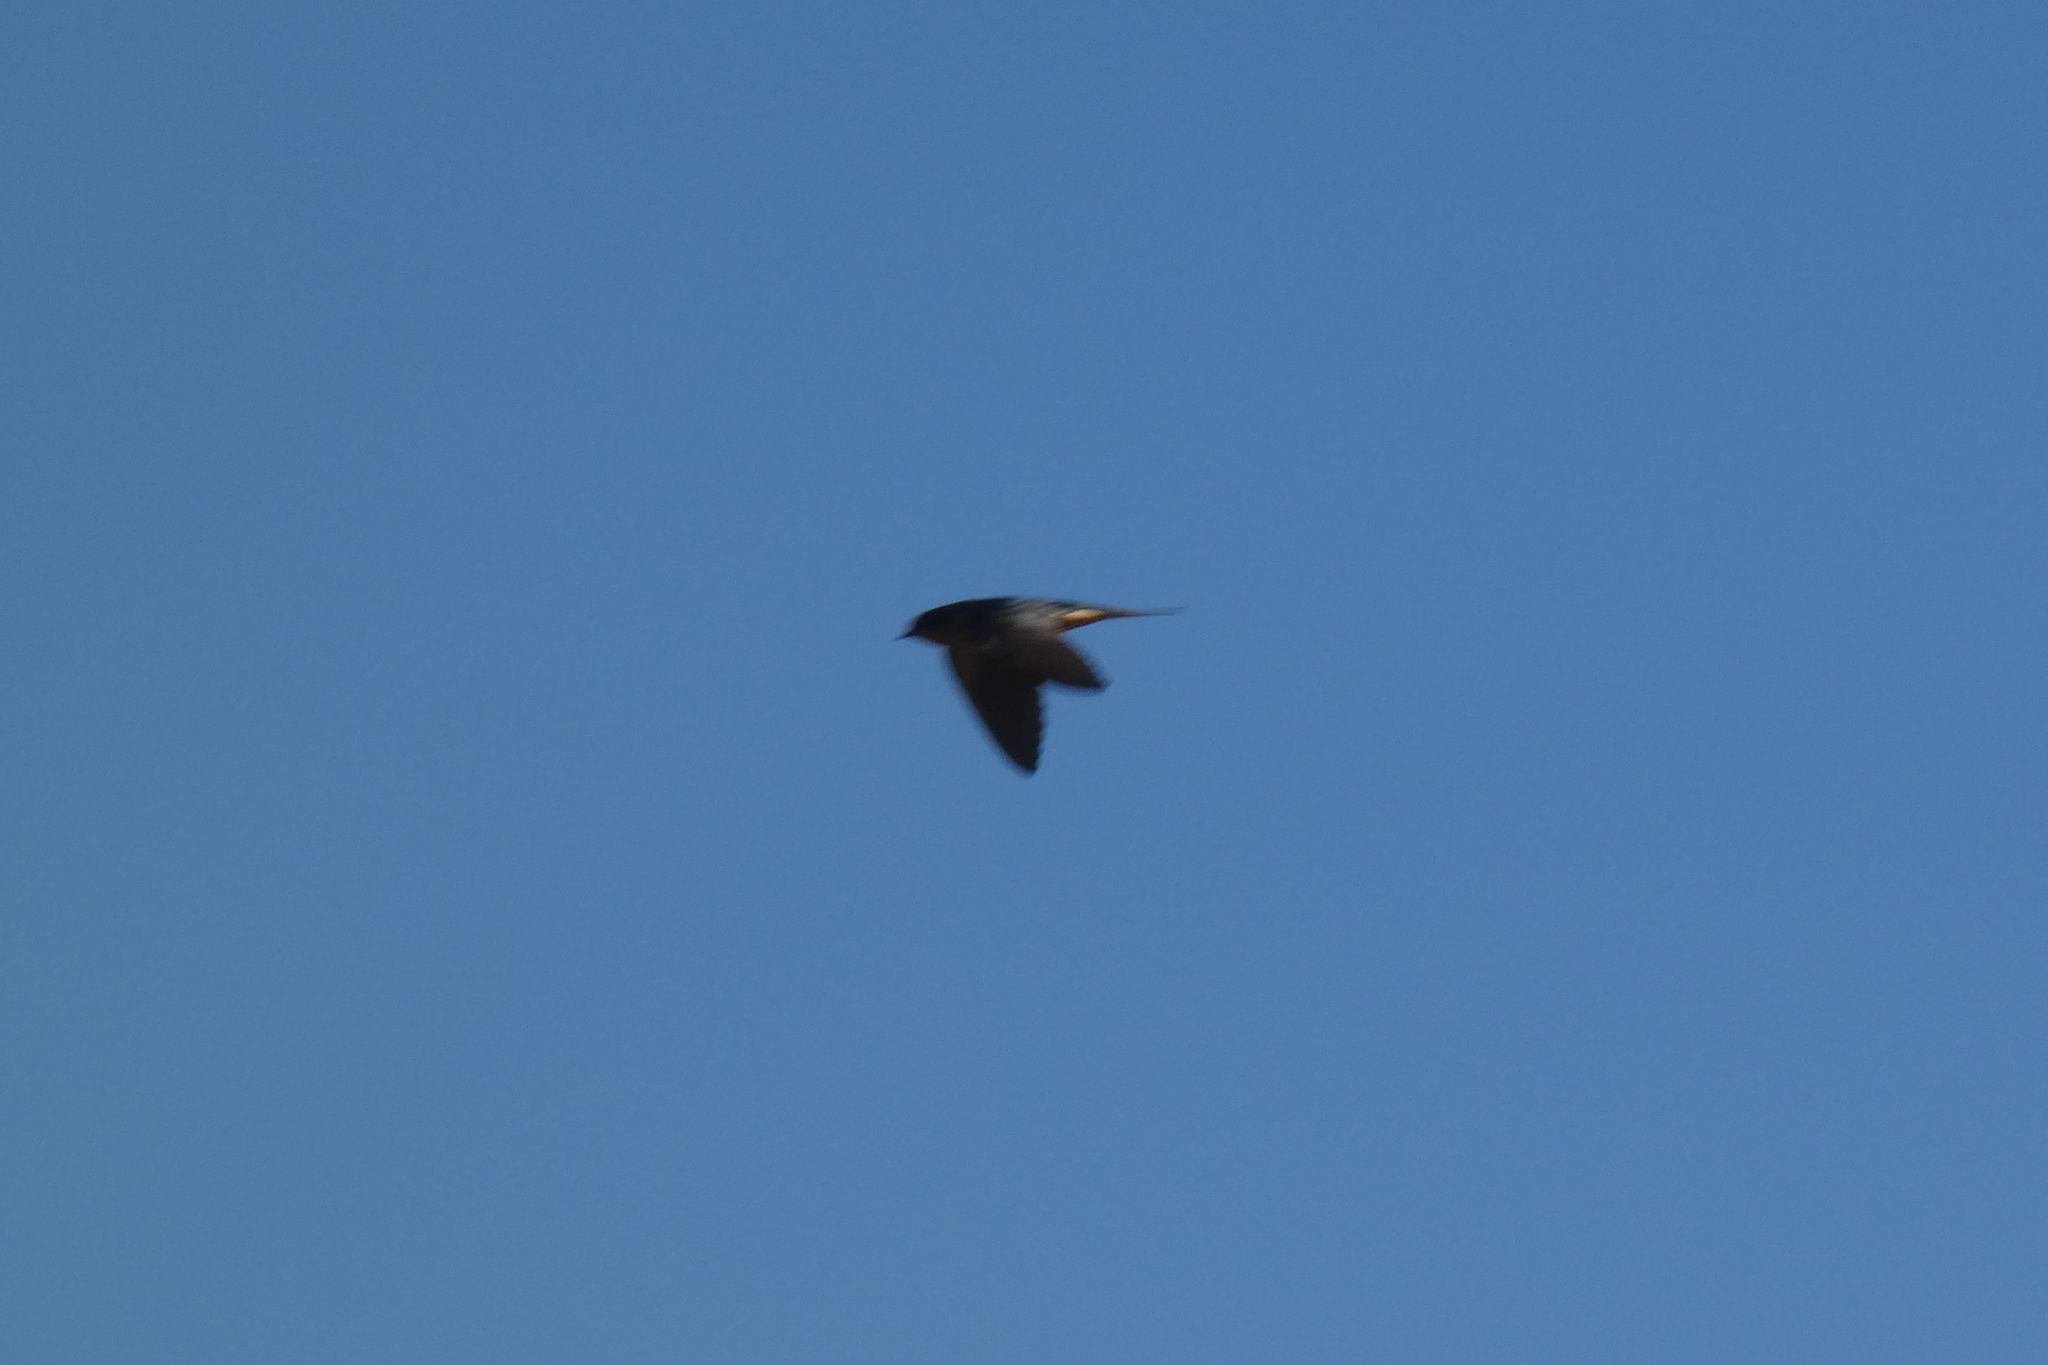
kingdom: Animalia
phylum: Chordata
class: Aves
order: Passeriformes
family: Hirundinidae
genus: Hirundo
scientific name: Hirundo rustica
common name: Barn swallow
